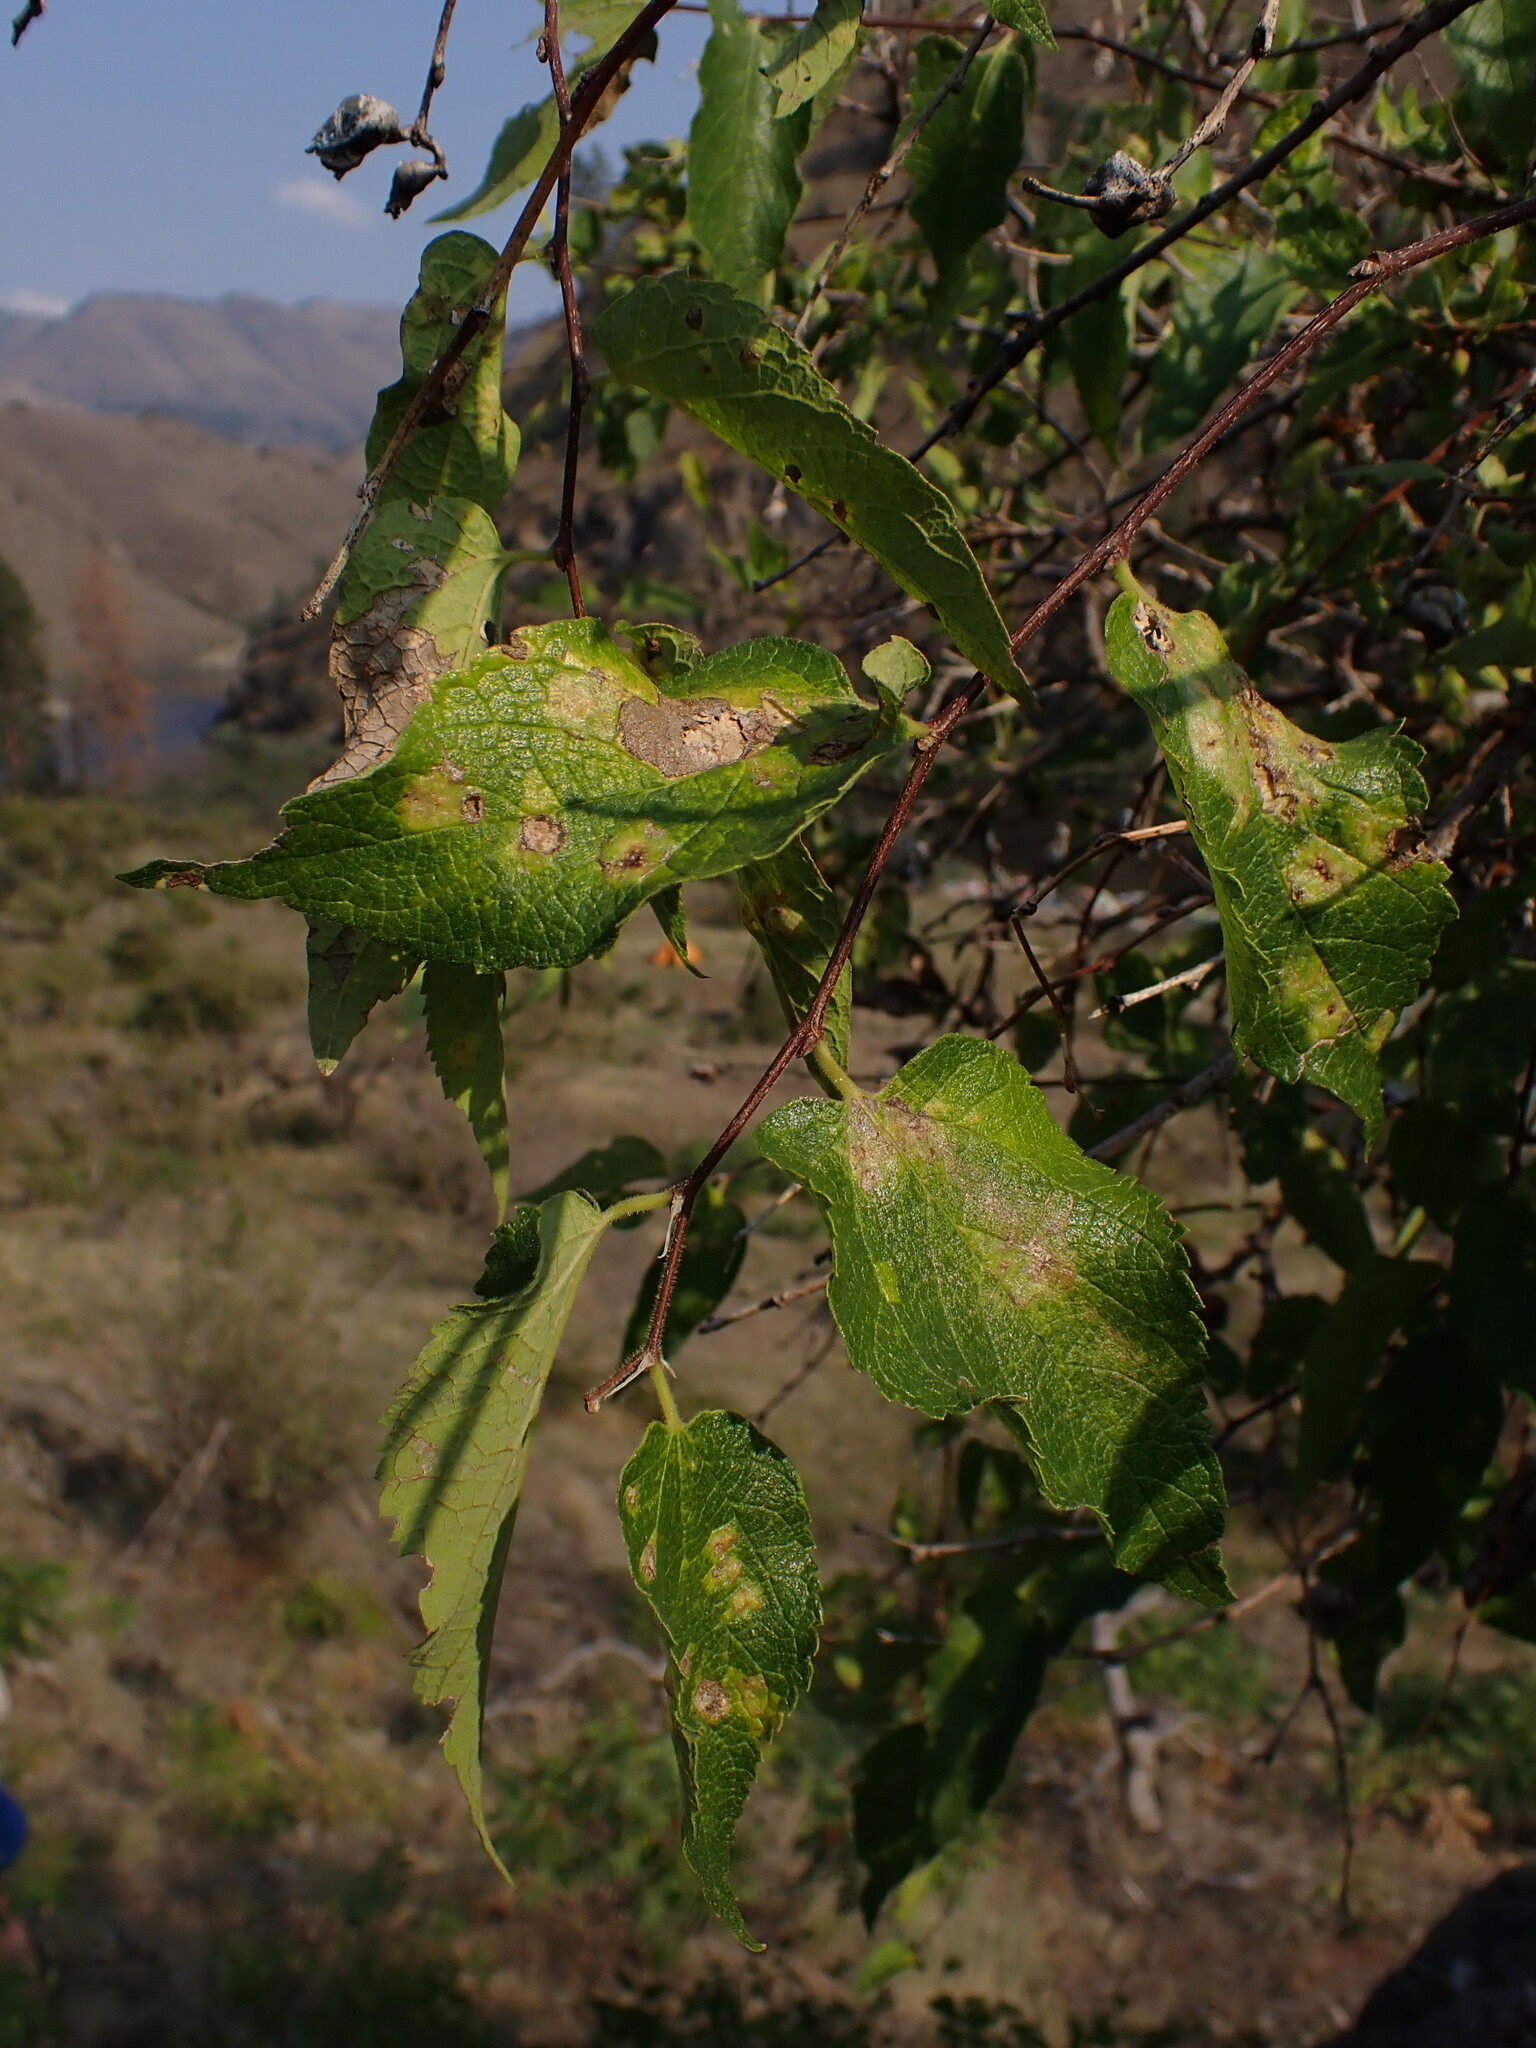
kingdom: Plantae
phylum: Tracheophyta
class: Magnoliopsida
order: Rosales
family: Cannabaceae
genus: Celtis
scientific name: Celtis reticulata
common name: Netleaf hackberry
